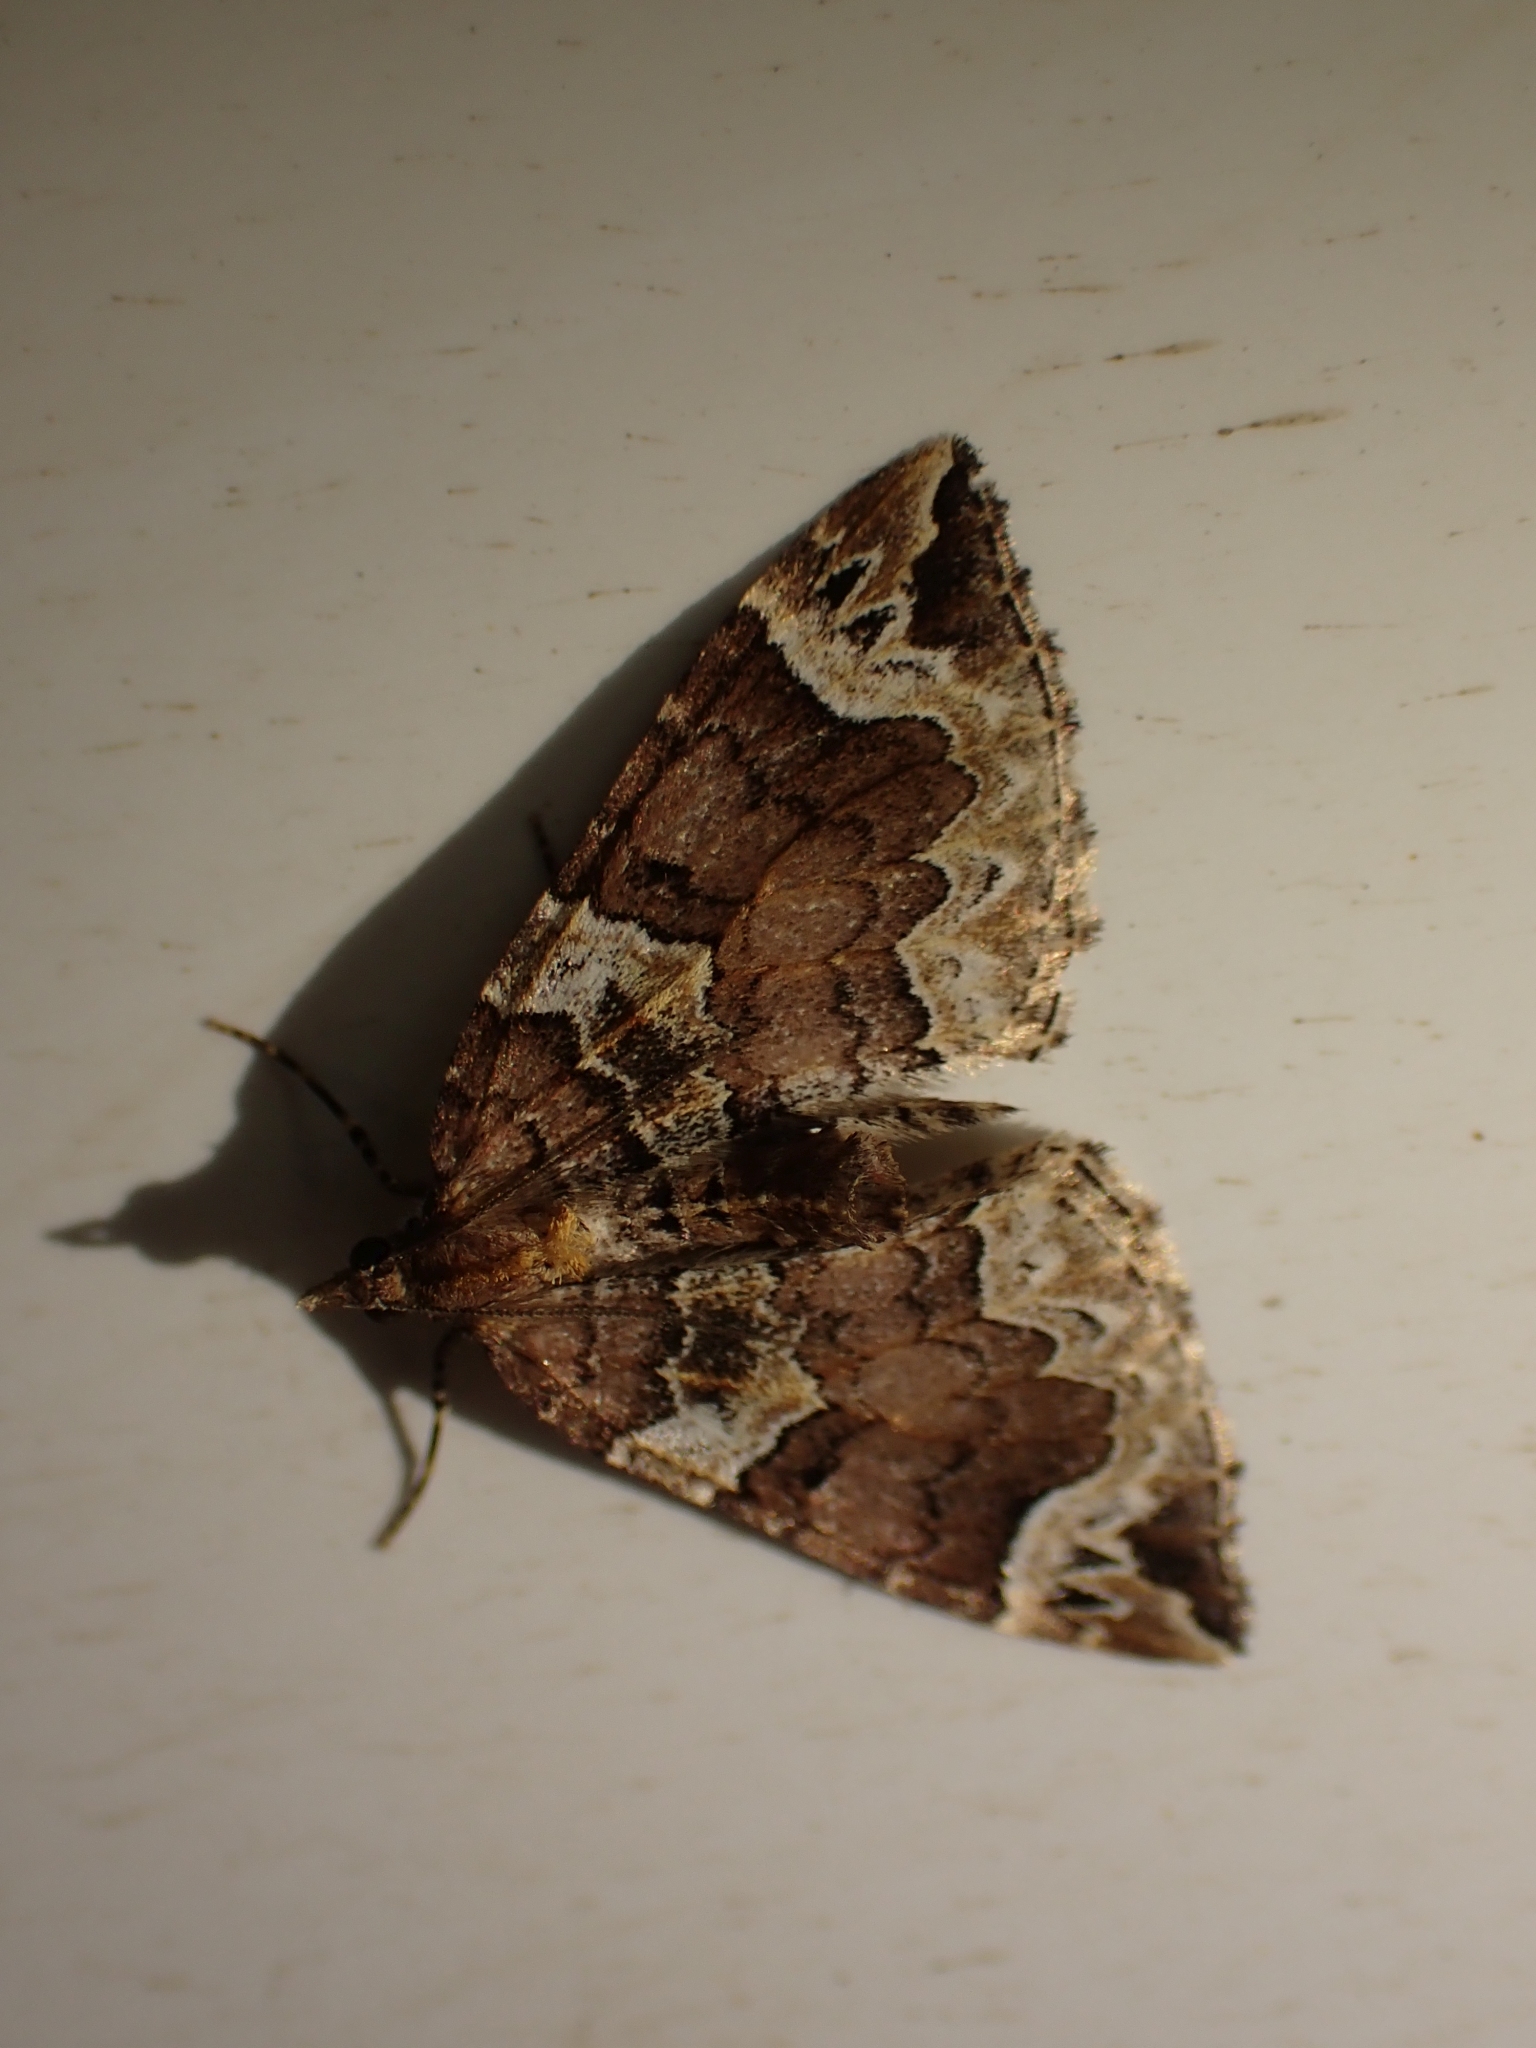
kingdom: Animalia
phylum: Arthropoda
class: Insecta
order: Lepidoptera
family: Geometridae
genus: Eulithis
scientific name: Eulithis xylina
